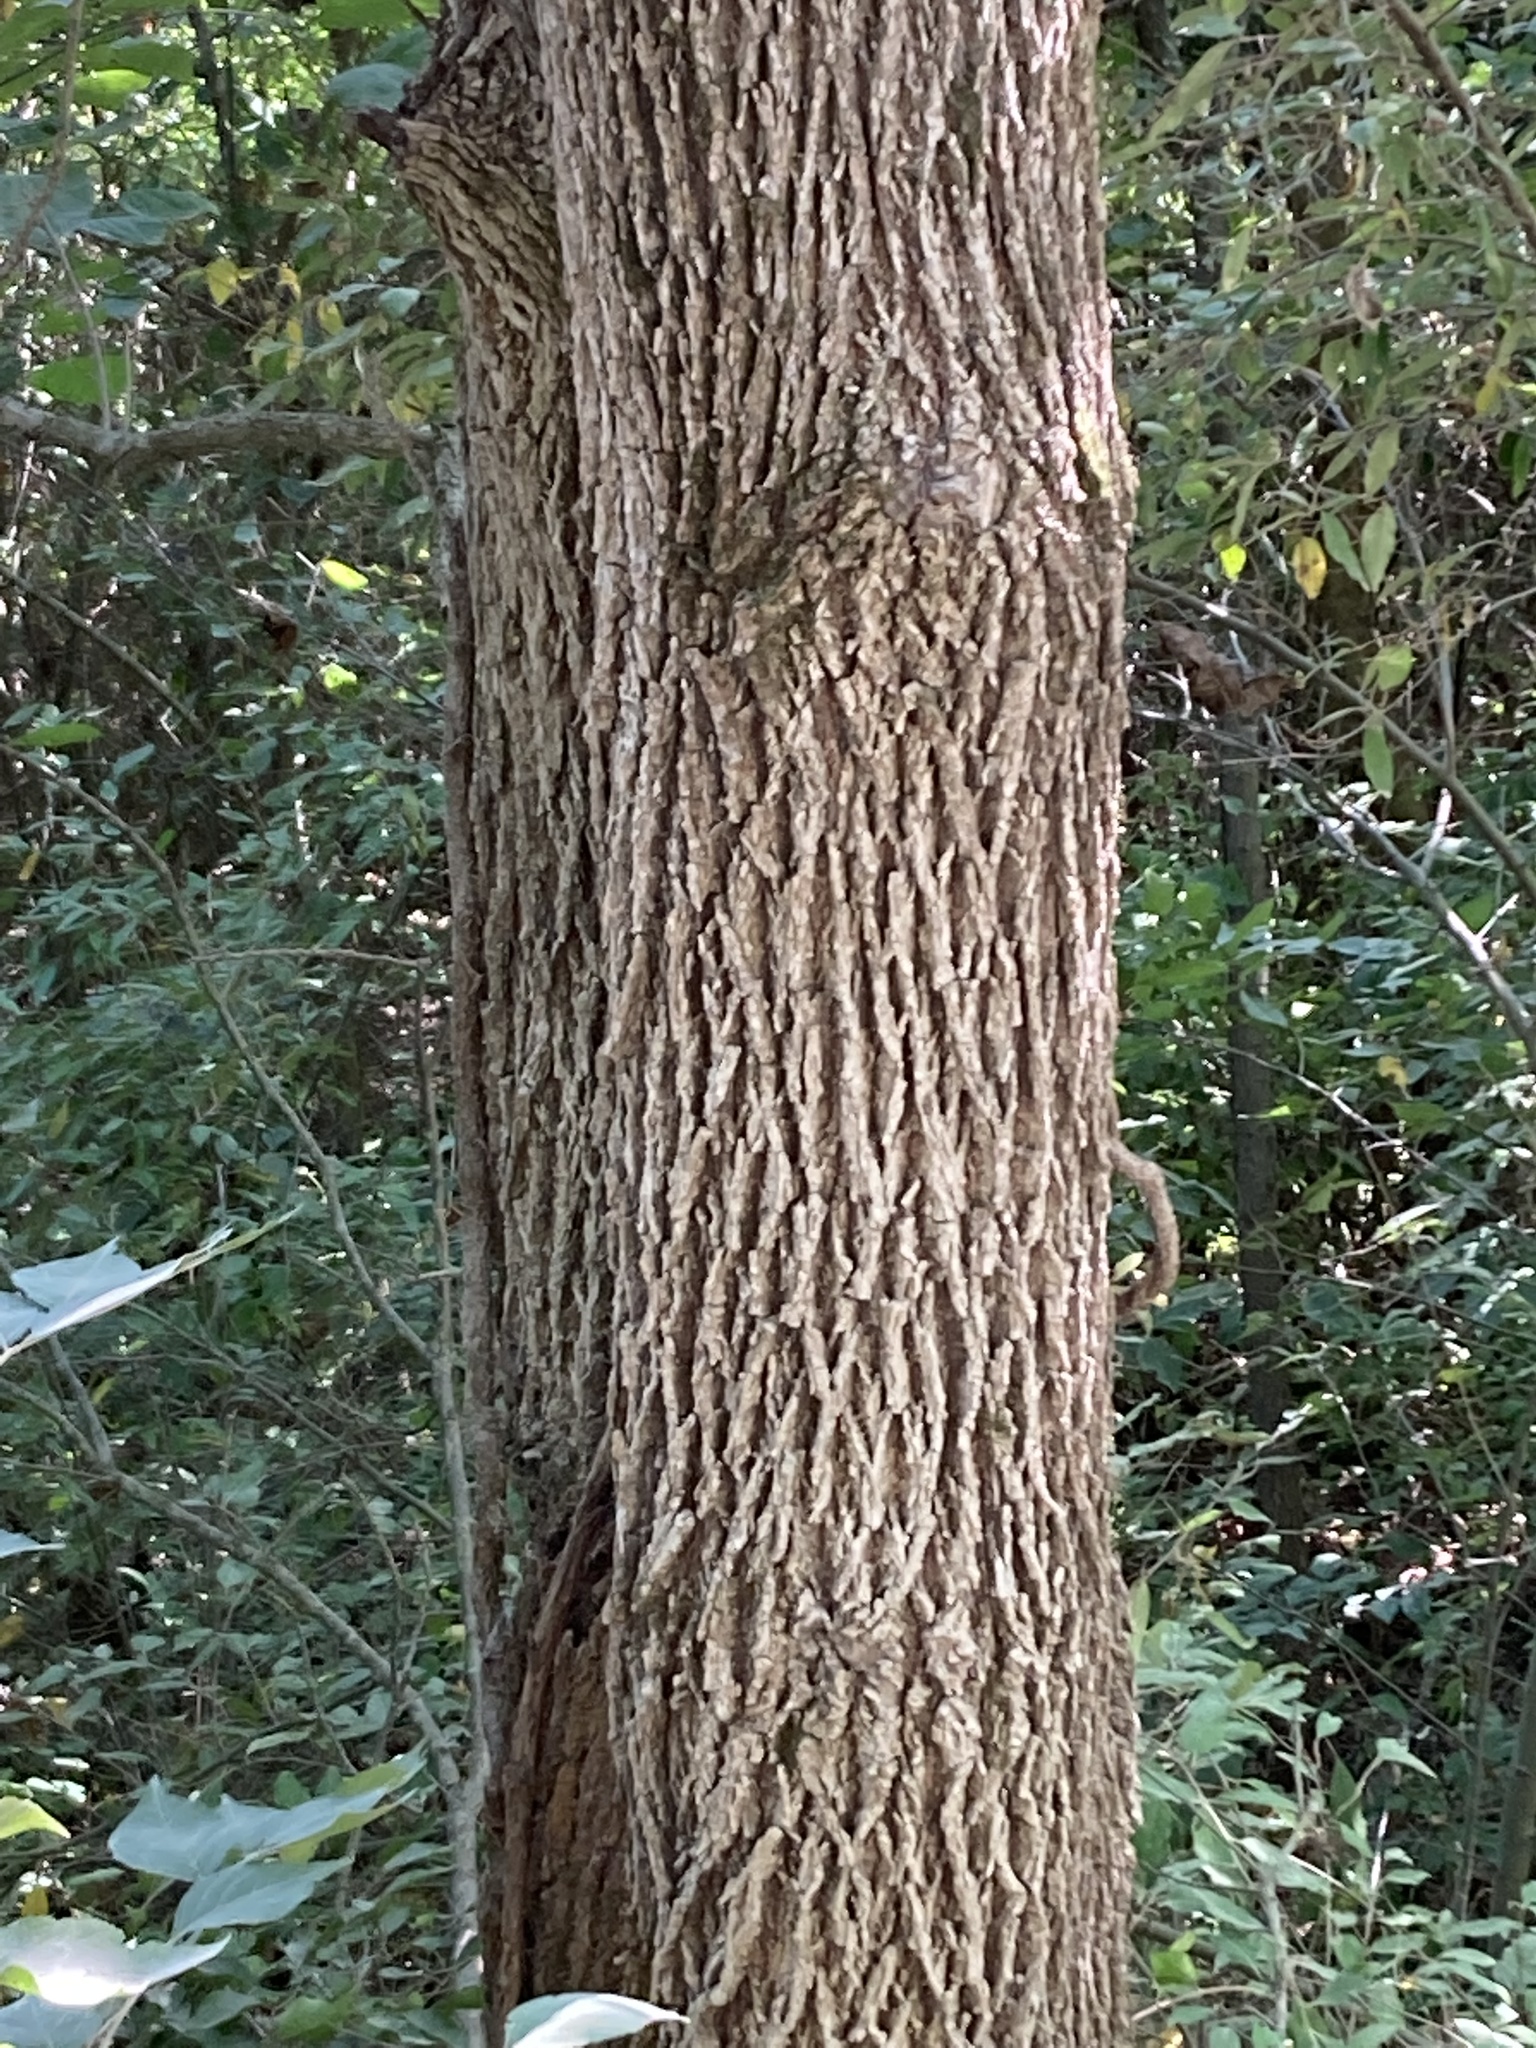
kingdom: Plantae
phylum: Tracheophyta
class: Magnoliopsida
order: Fagales
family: Juglandaceae
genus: Juglans
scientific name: Juglans nigra
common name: Black walnut
